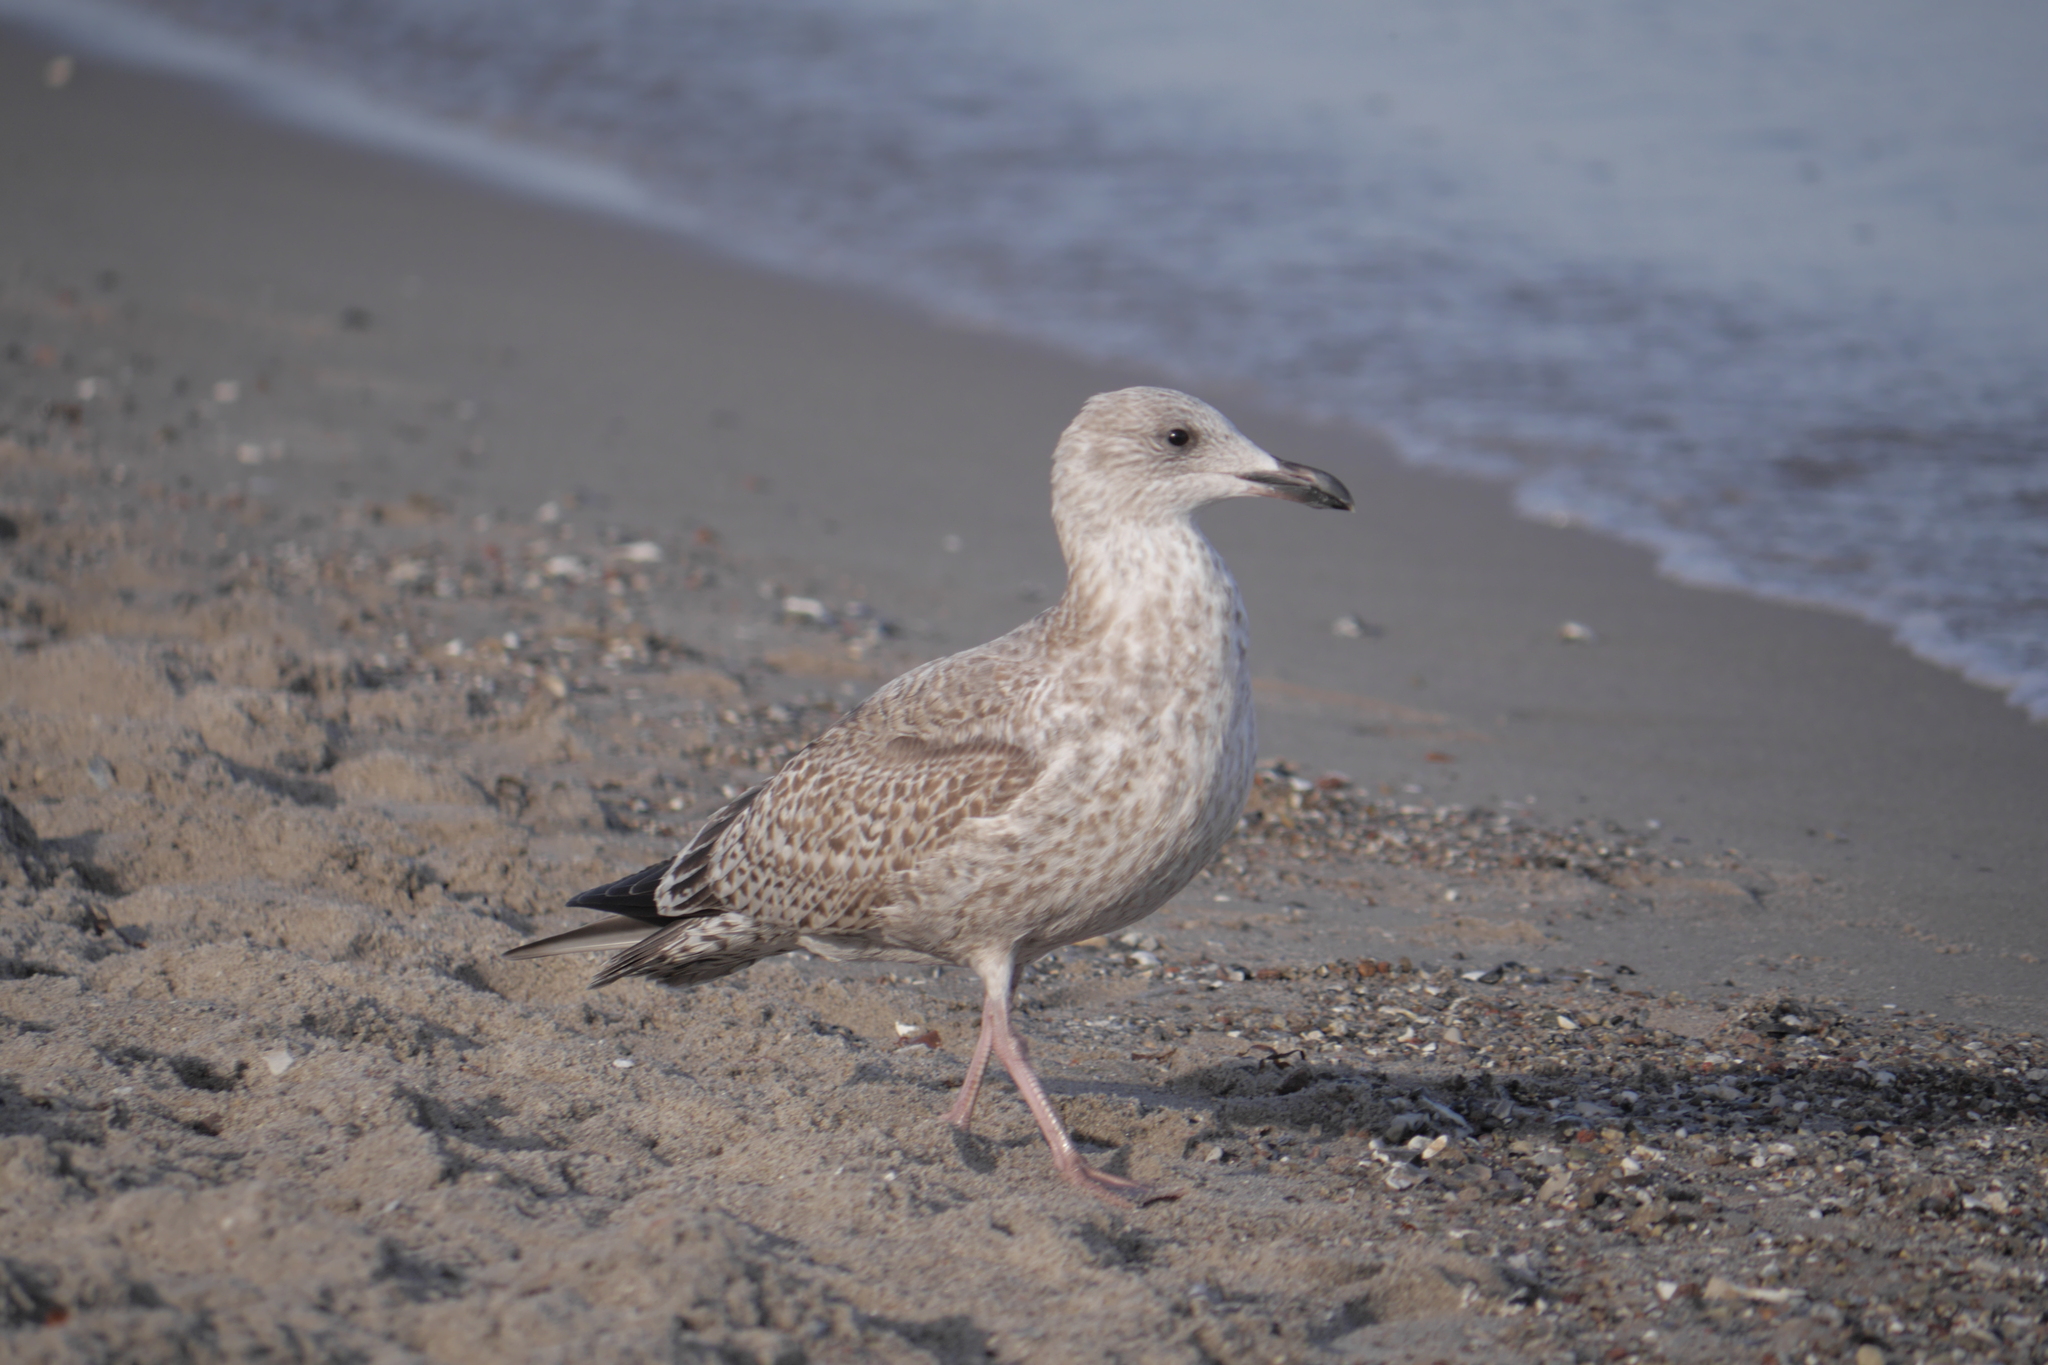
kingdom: Animalia
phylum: Chordata
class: Aves
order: Charadriiformes
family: Laridae
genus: Larus
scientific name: Larus argentatus
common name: Herring gull
